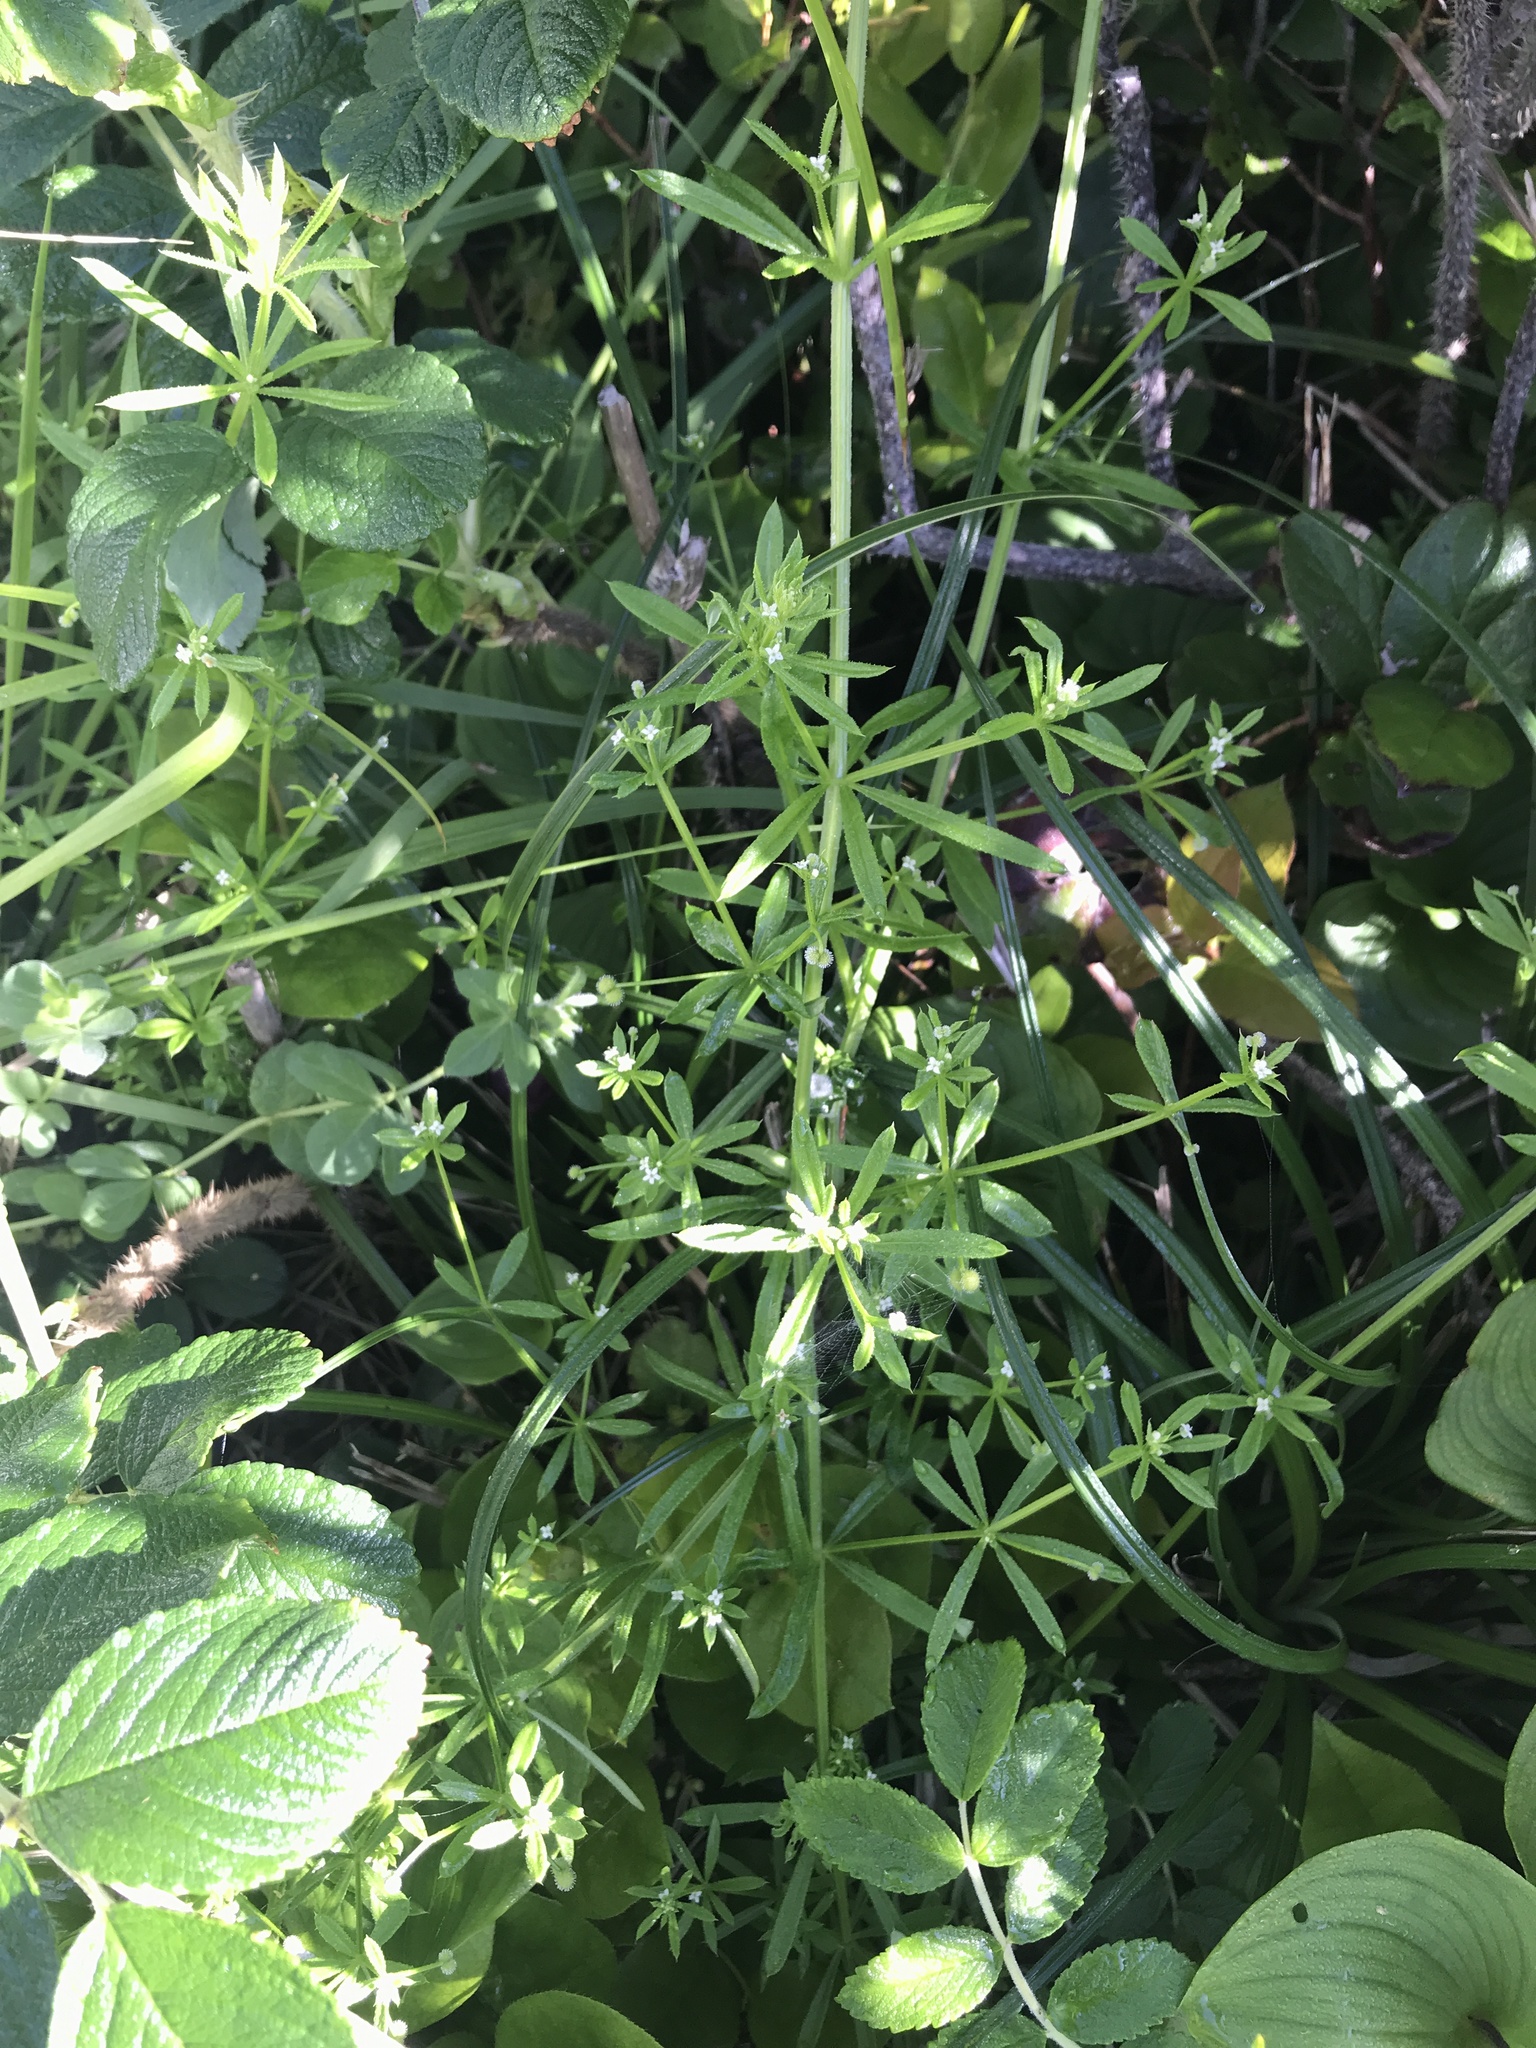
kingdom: Plantae
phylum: Tracheophyta
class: Magnoliopsida
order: Gentianales
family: Rubiaceae
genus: Galium
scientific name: Galium aparine
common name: Cleavers
